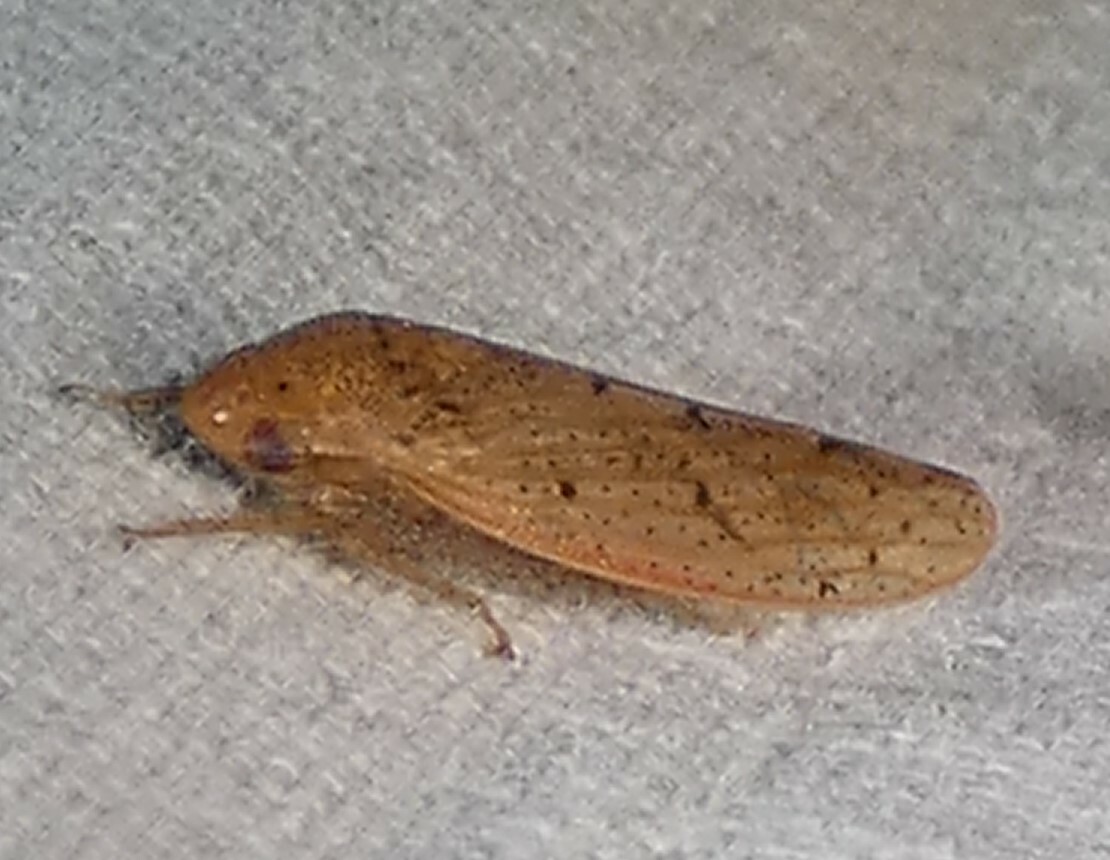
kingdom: Animalia
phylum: Arthropoda
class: Insecta
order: Hemiptera
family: Cicadellidae
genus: Ponana
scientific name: Ponana puncticollis
